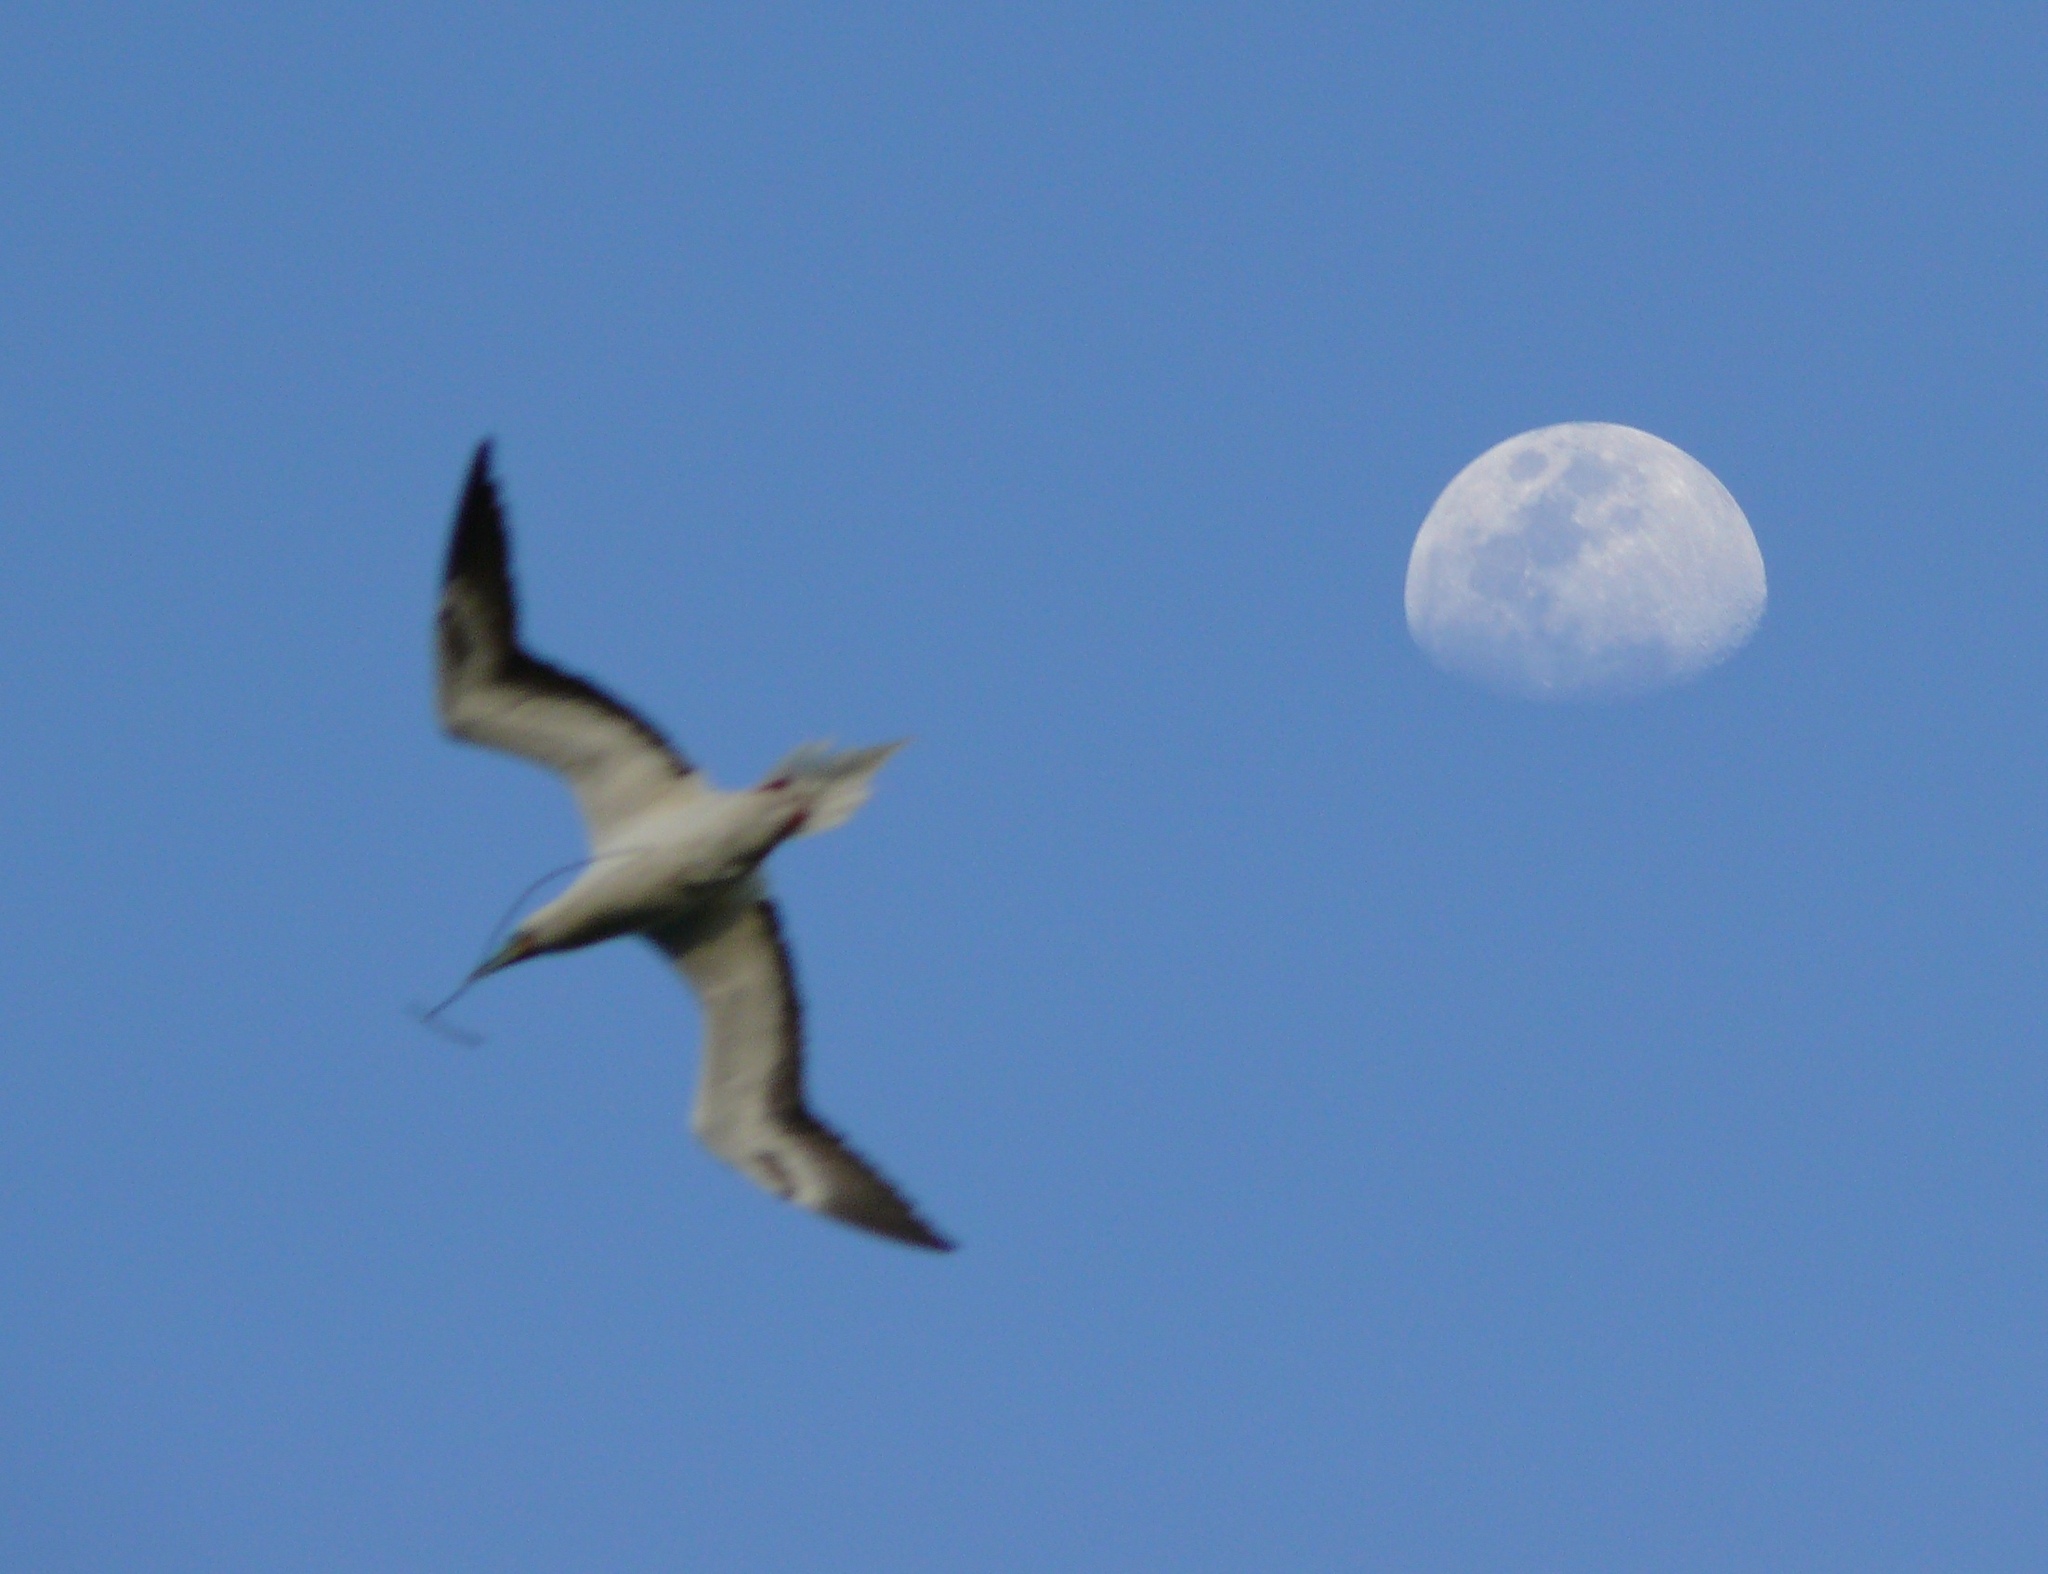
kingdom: Animalia
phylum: Chordata
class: Aves
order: Suliformes
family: Sulidae
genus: Sula
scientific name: Sula sula
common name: Red-footed booby
